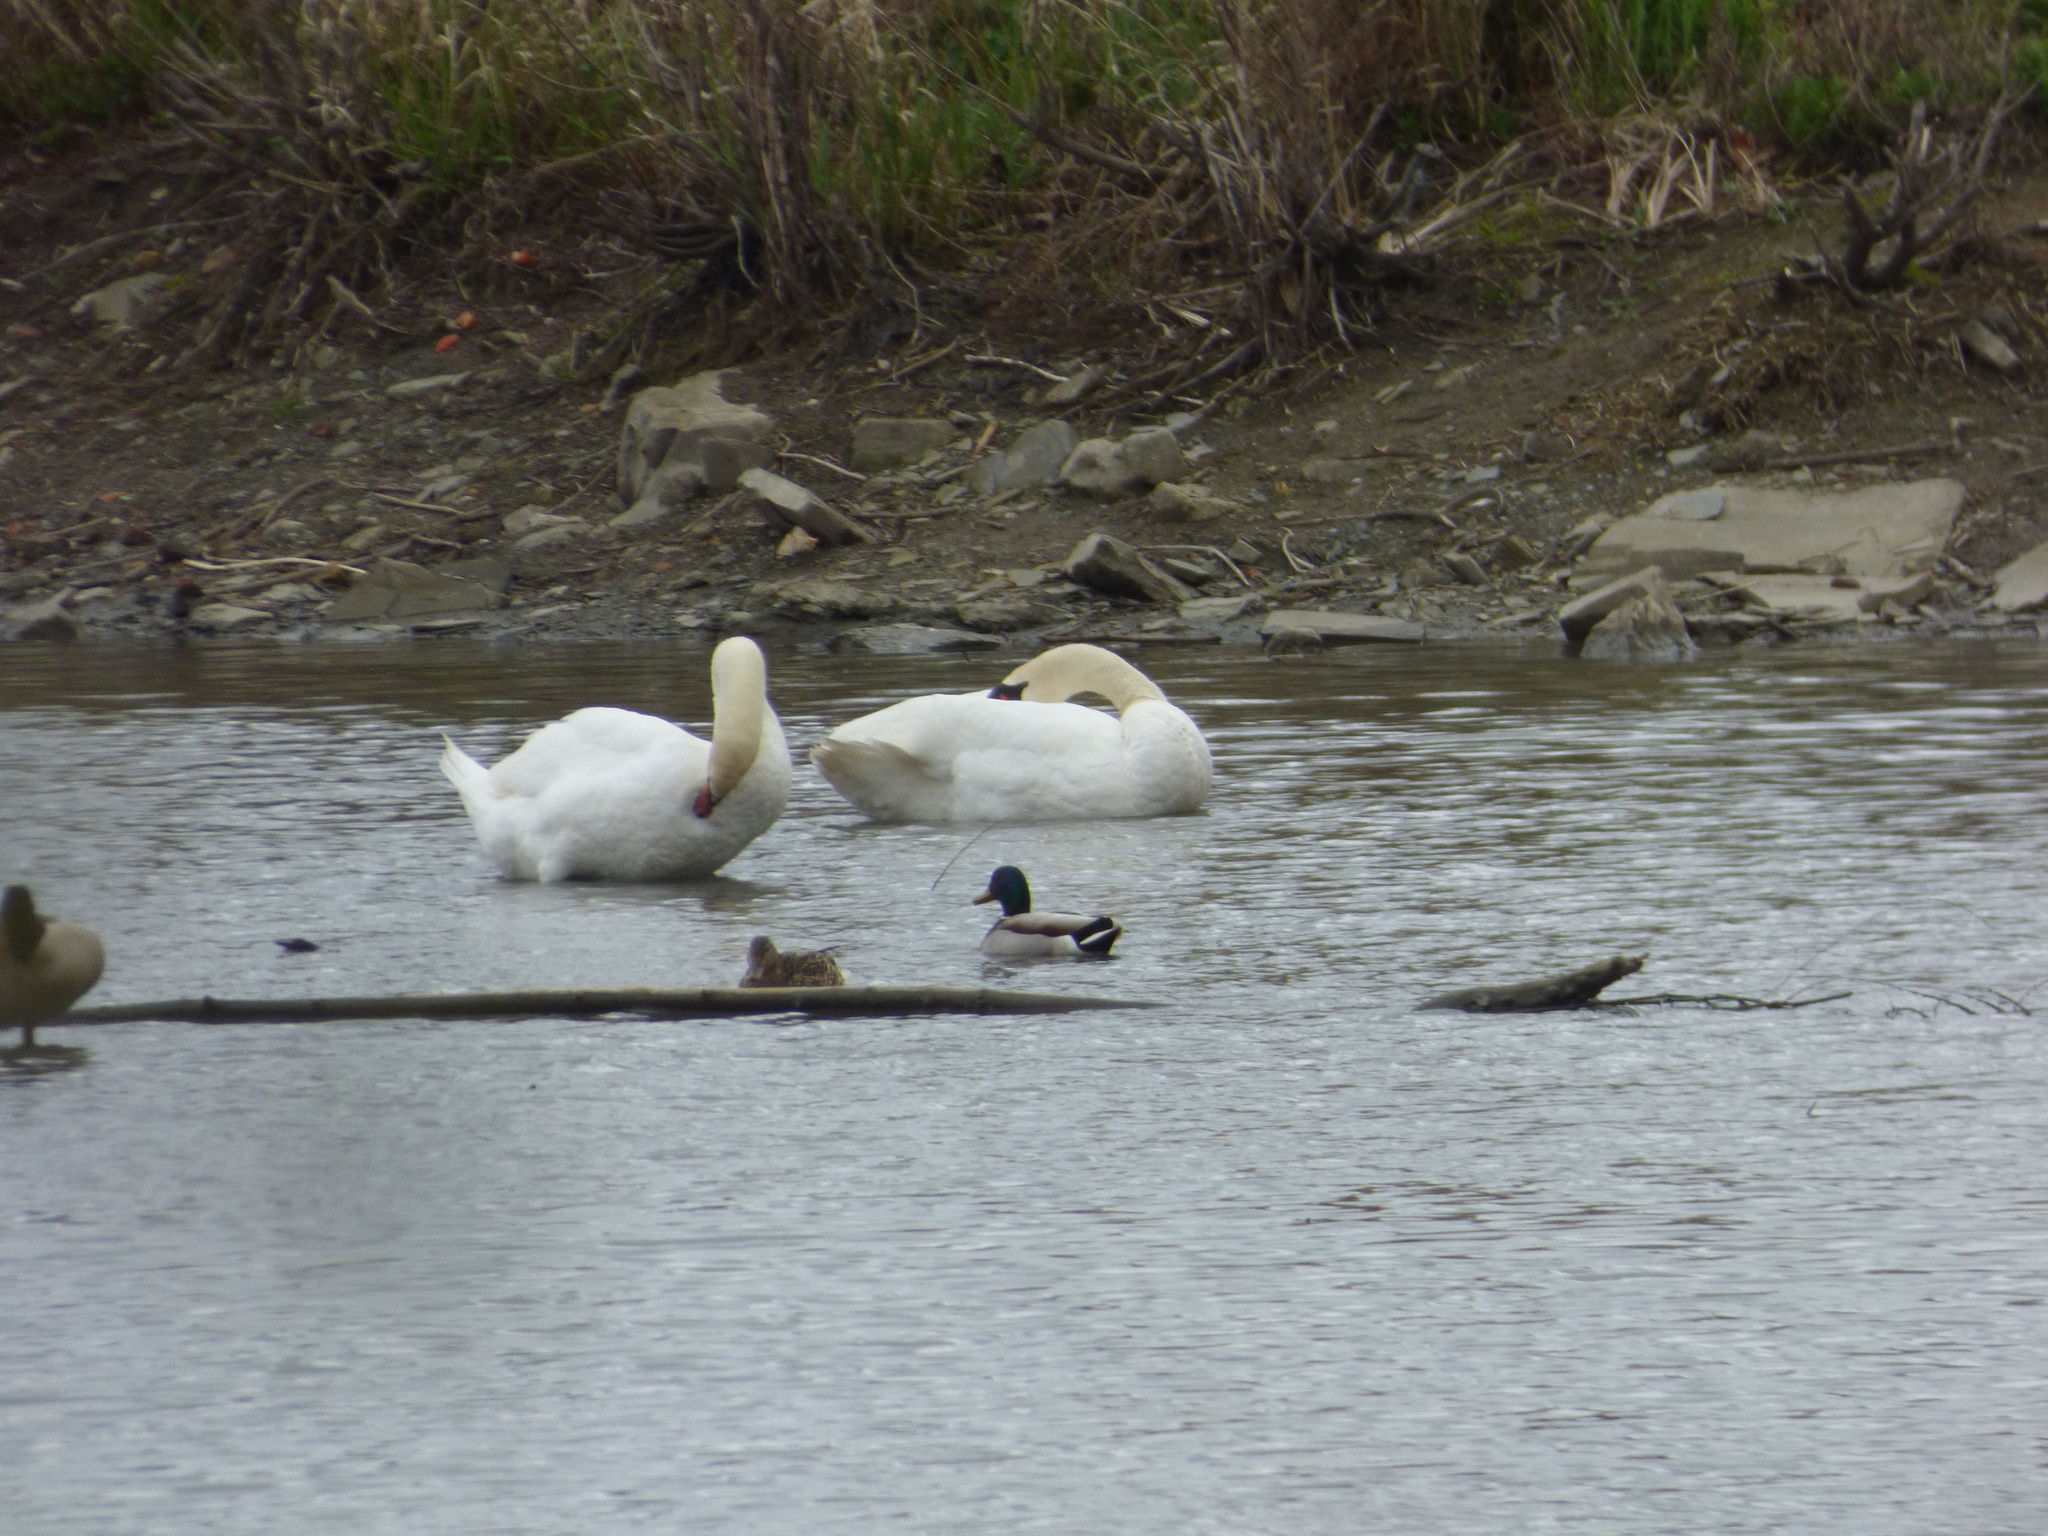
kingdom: Animalia
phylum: Chordata
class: Aves
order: Anseriformes
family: Anatidae
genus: Cygnus
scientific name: Cygnus olor
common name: Mute swan
